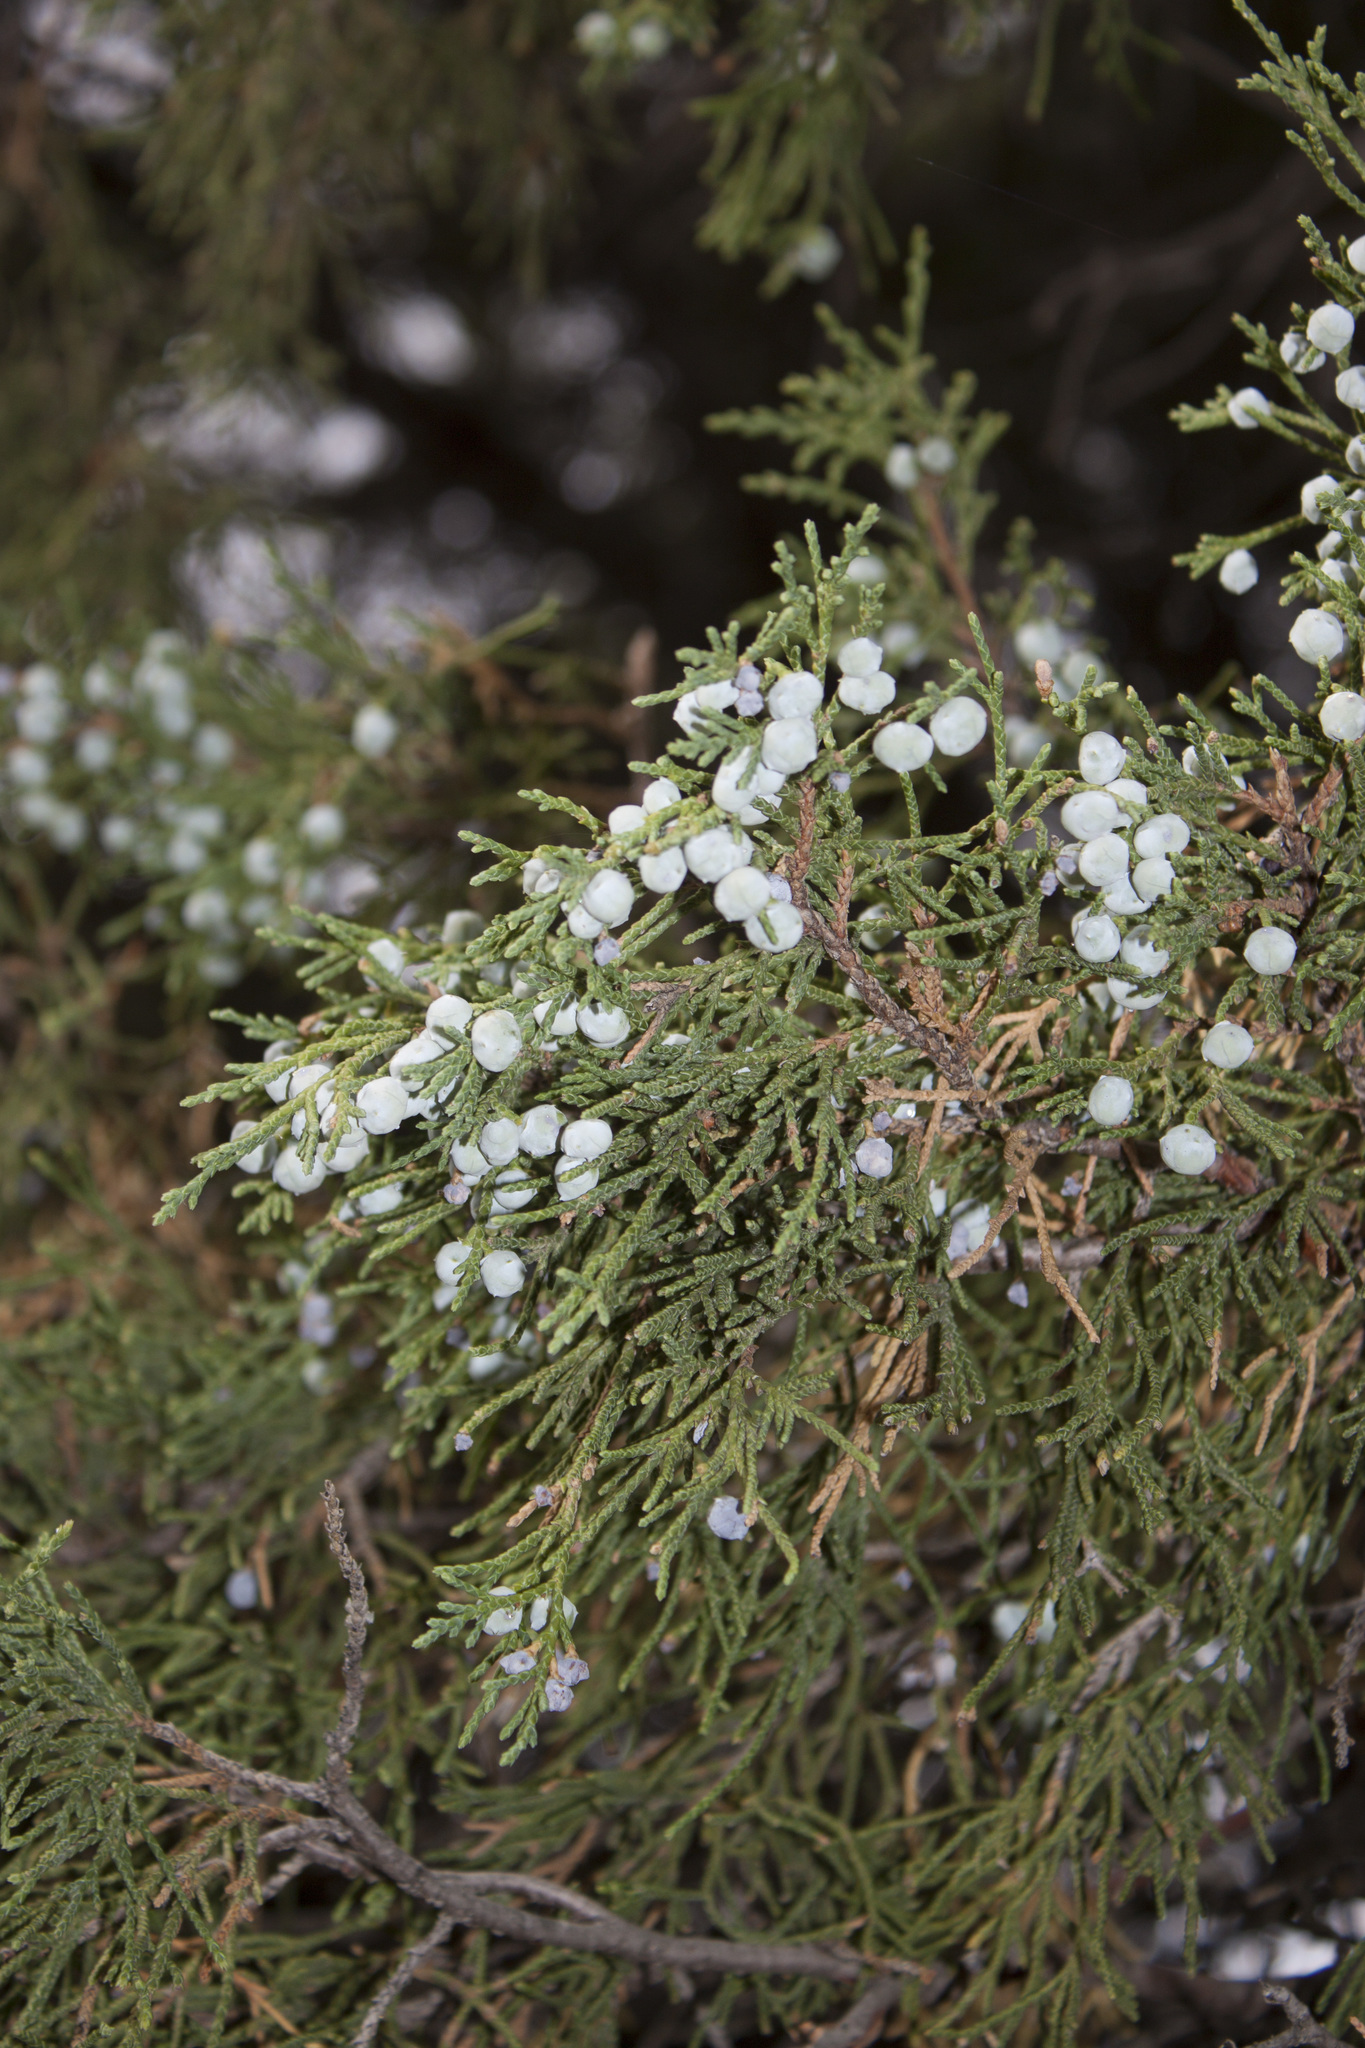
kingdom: Plantae
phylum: Tracheophyta
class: Pinopsida
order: Pinales
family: Cupressaceae
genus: Juniperus
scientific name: Juniperus scopulorum
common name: Rocky mountain juniper
